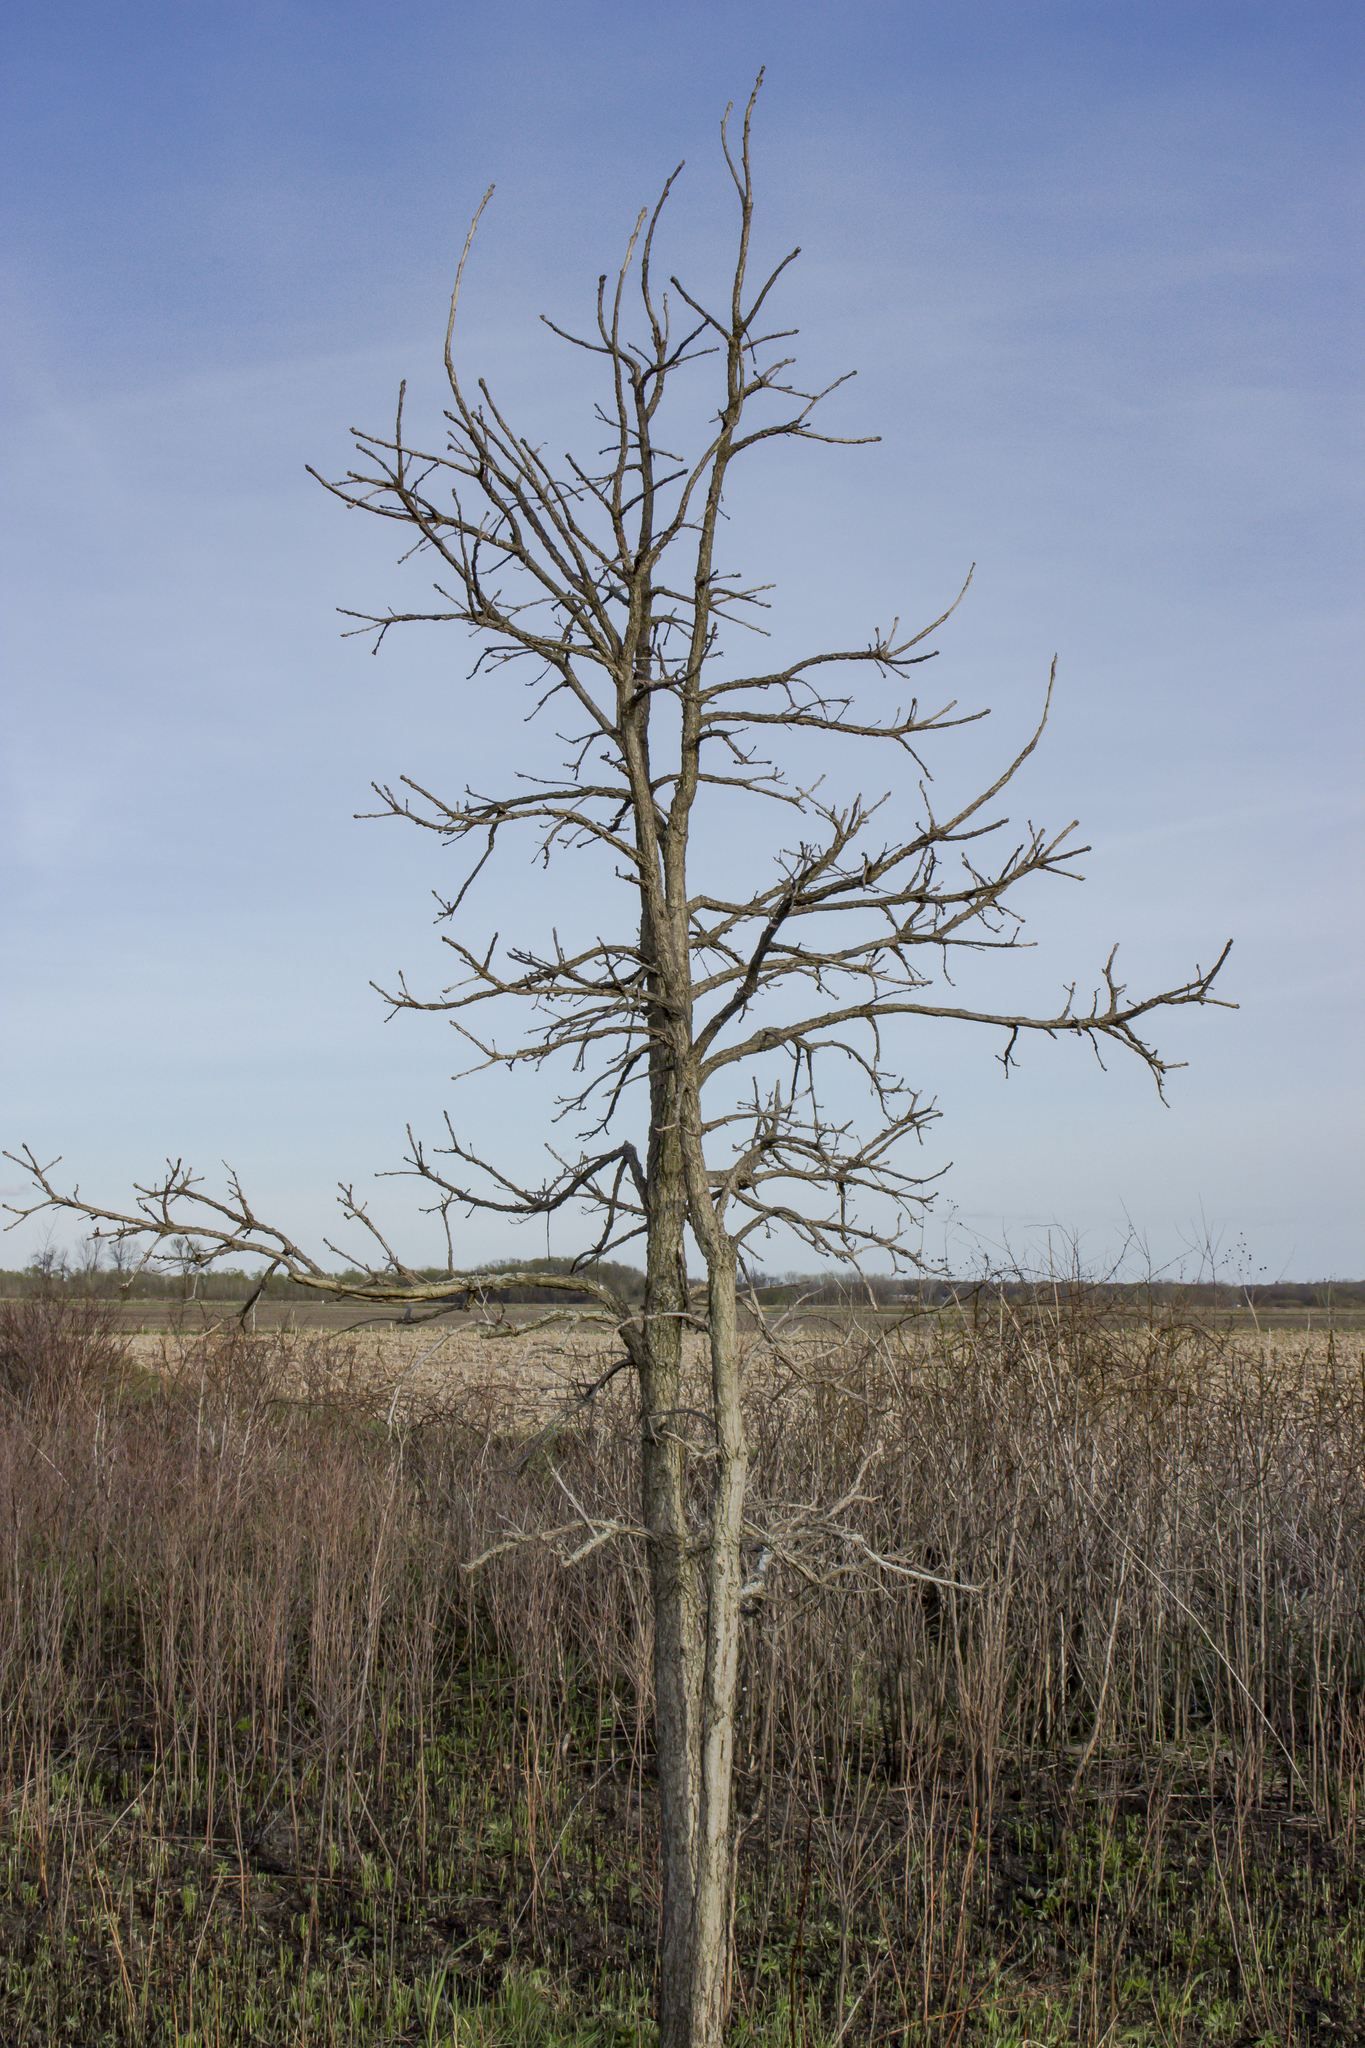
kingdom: Plantae
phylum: Tracheophyta
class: Magnoliopsida
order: Fagales
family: Fagaceae
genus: Quercus
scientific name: Quercus macrocarpa
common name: Bur oak
